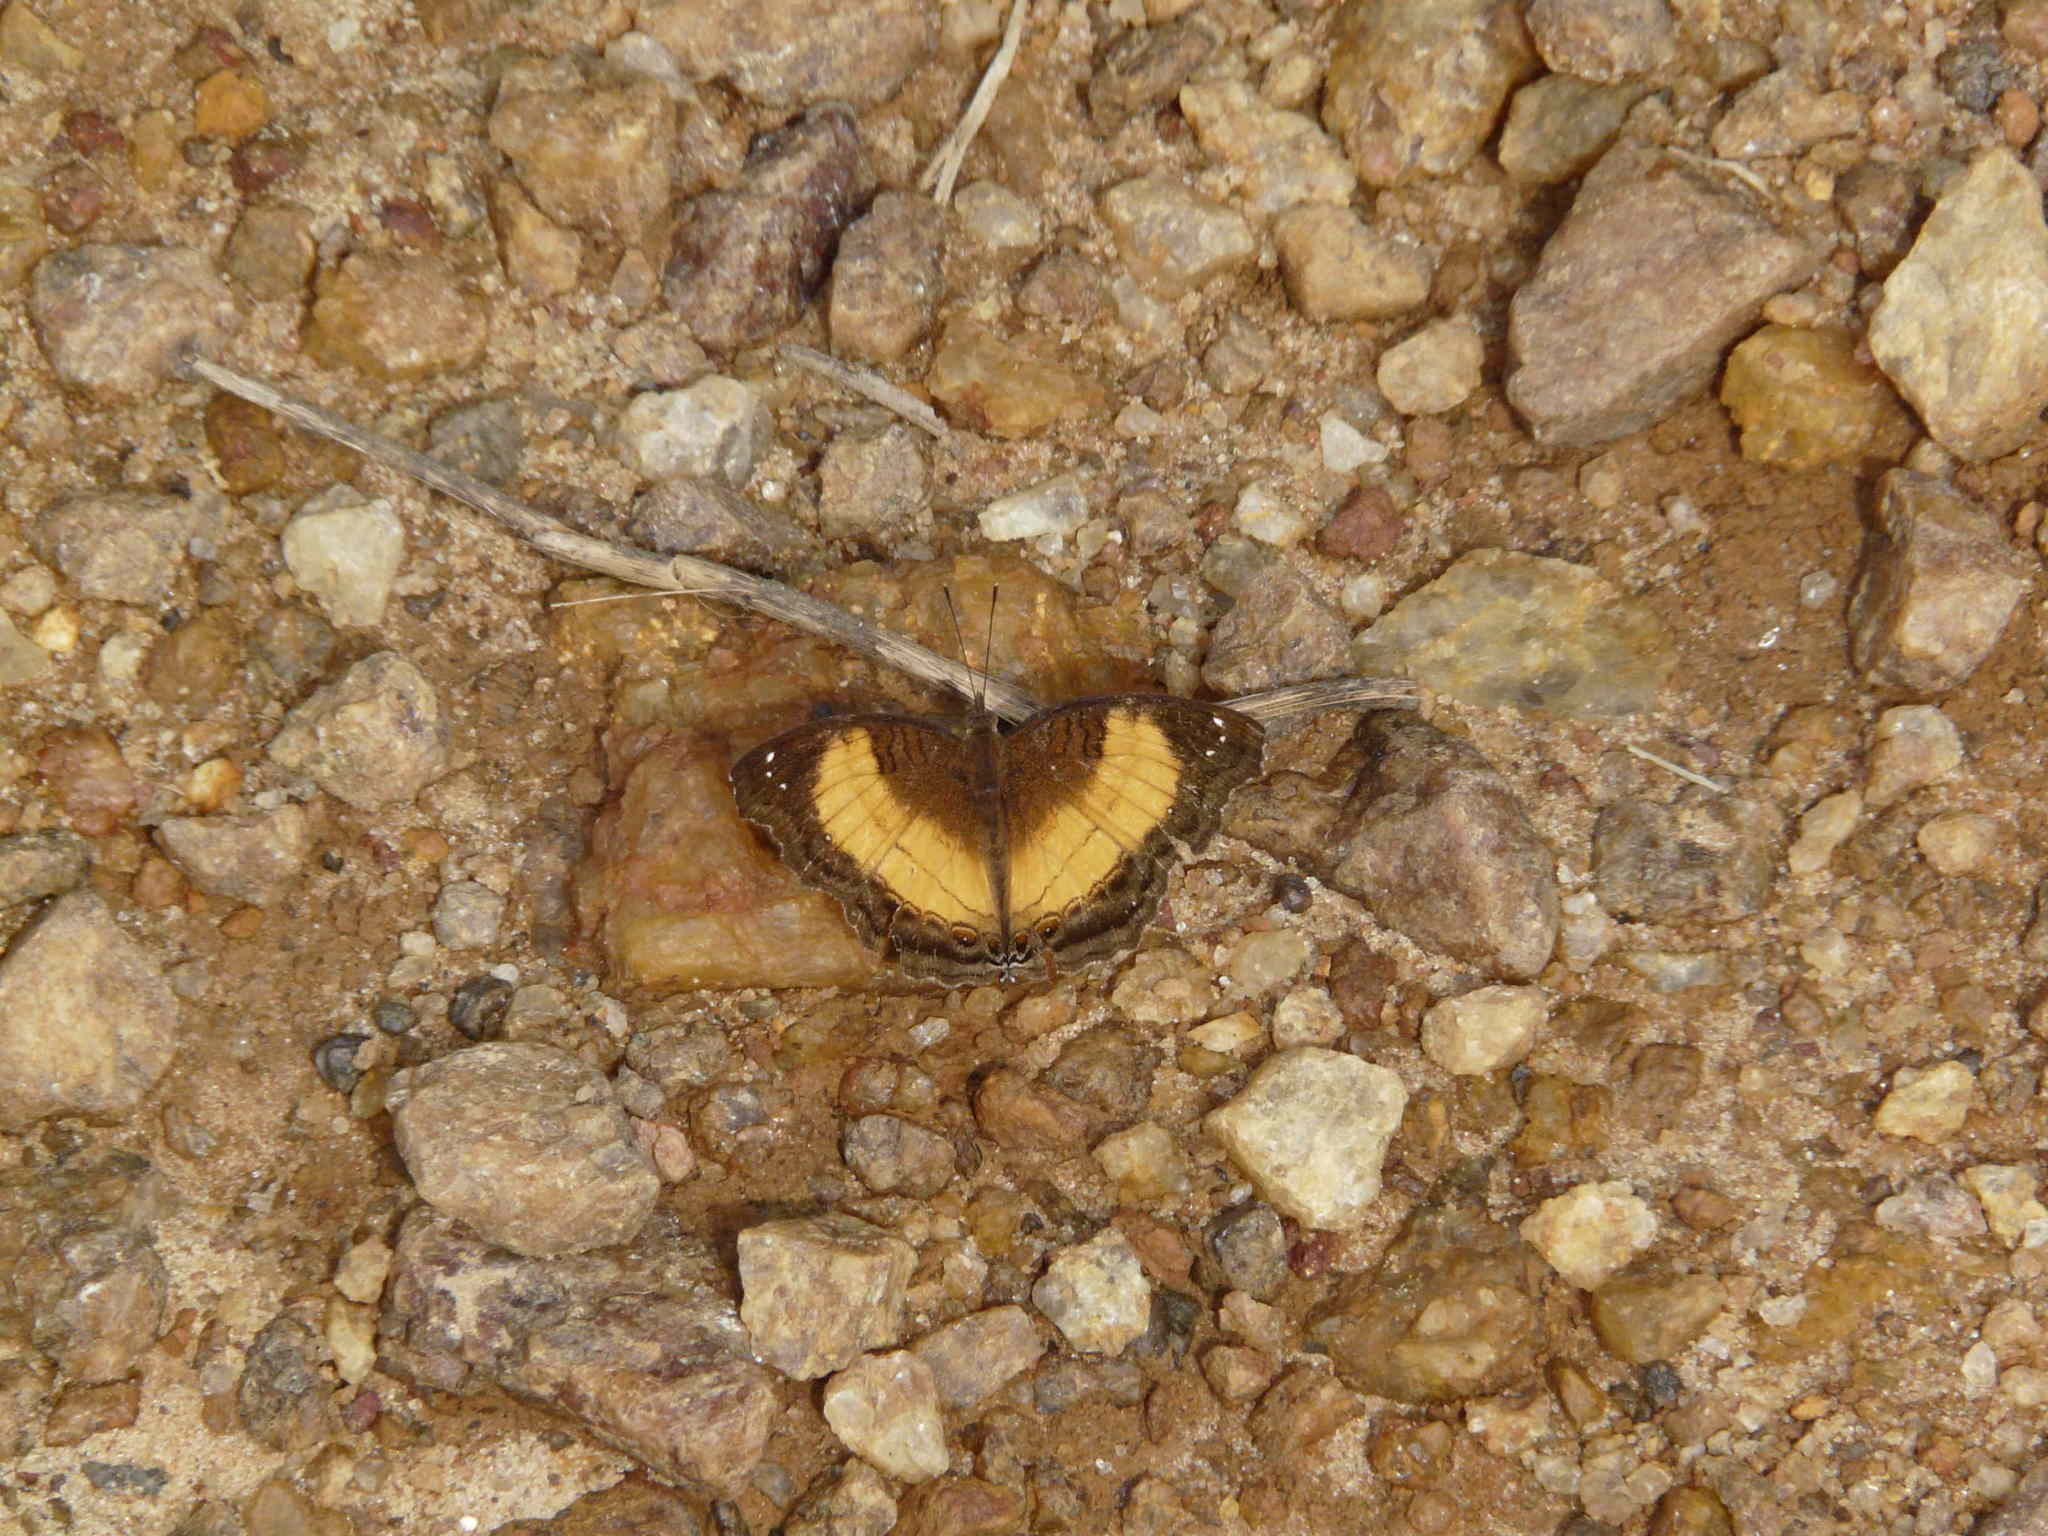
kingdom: Animalia
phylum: Arthropoda
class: Insecta
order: Lepidoptera
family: Nymphalidae
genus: Junonia
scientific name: Junonia terea
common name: Soldier pansy
